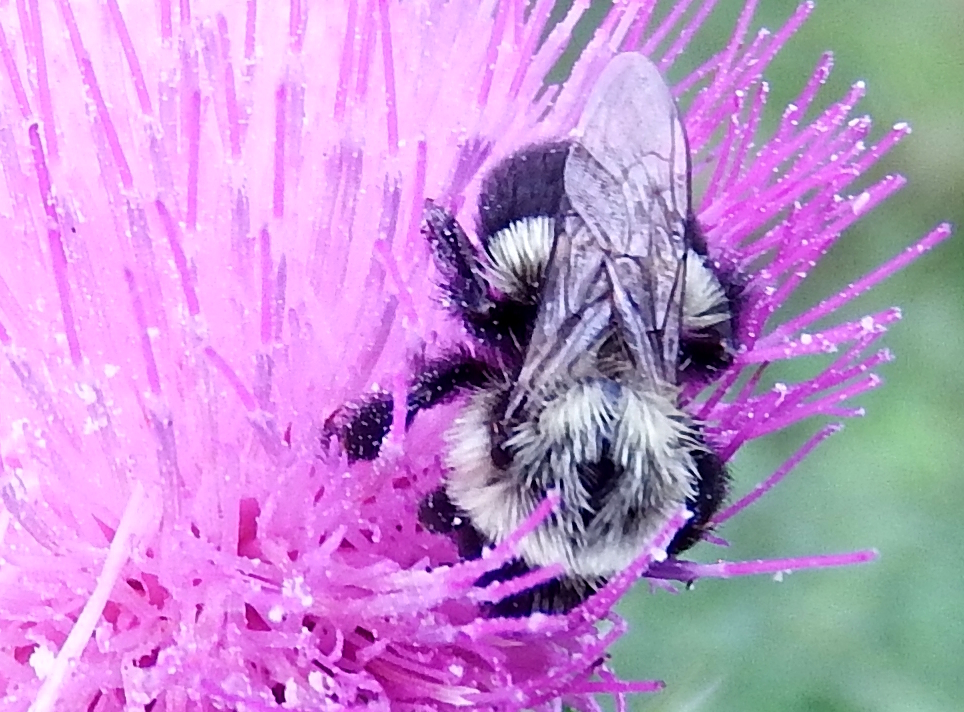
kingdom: Animalia
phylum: Arthropoda
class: Insecta
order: Hymenoptera
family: Apidae
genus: Bombus
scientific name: Bombus impatiens
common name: Common eastern bumble bee
